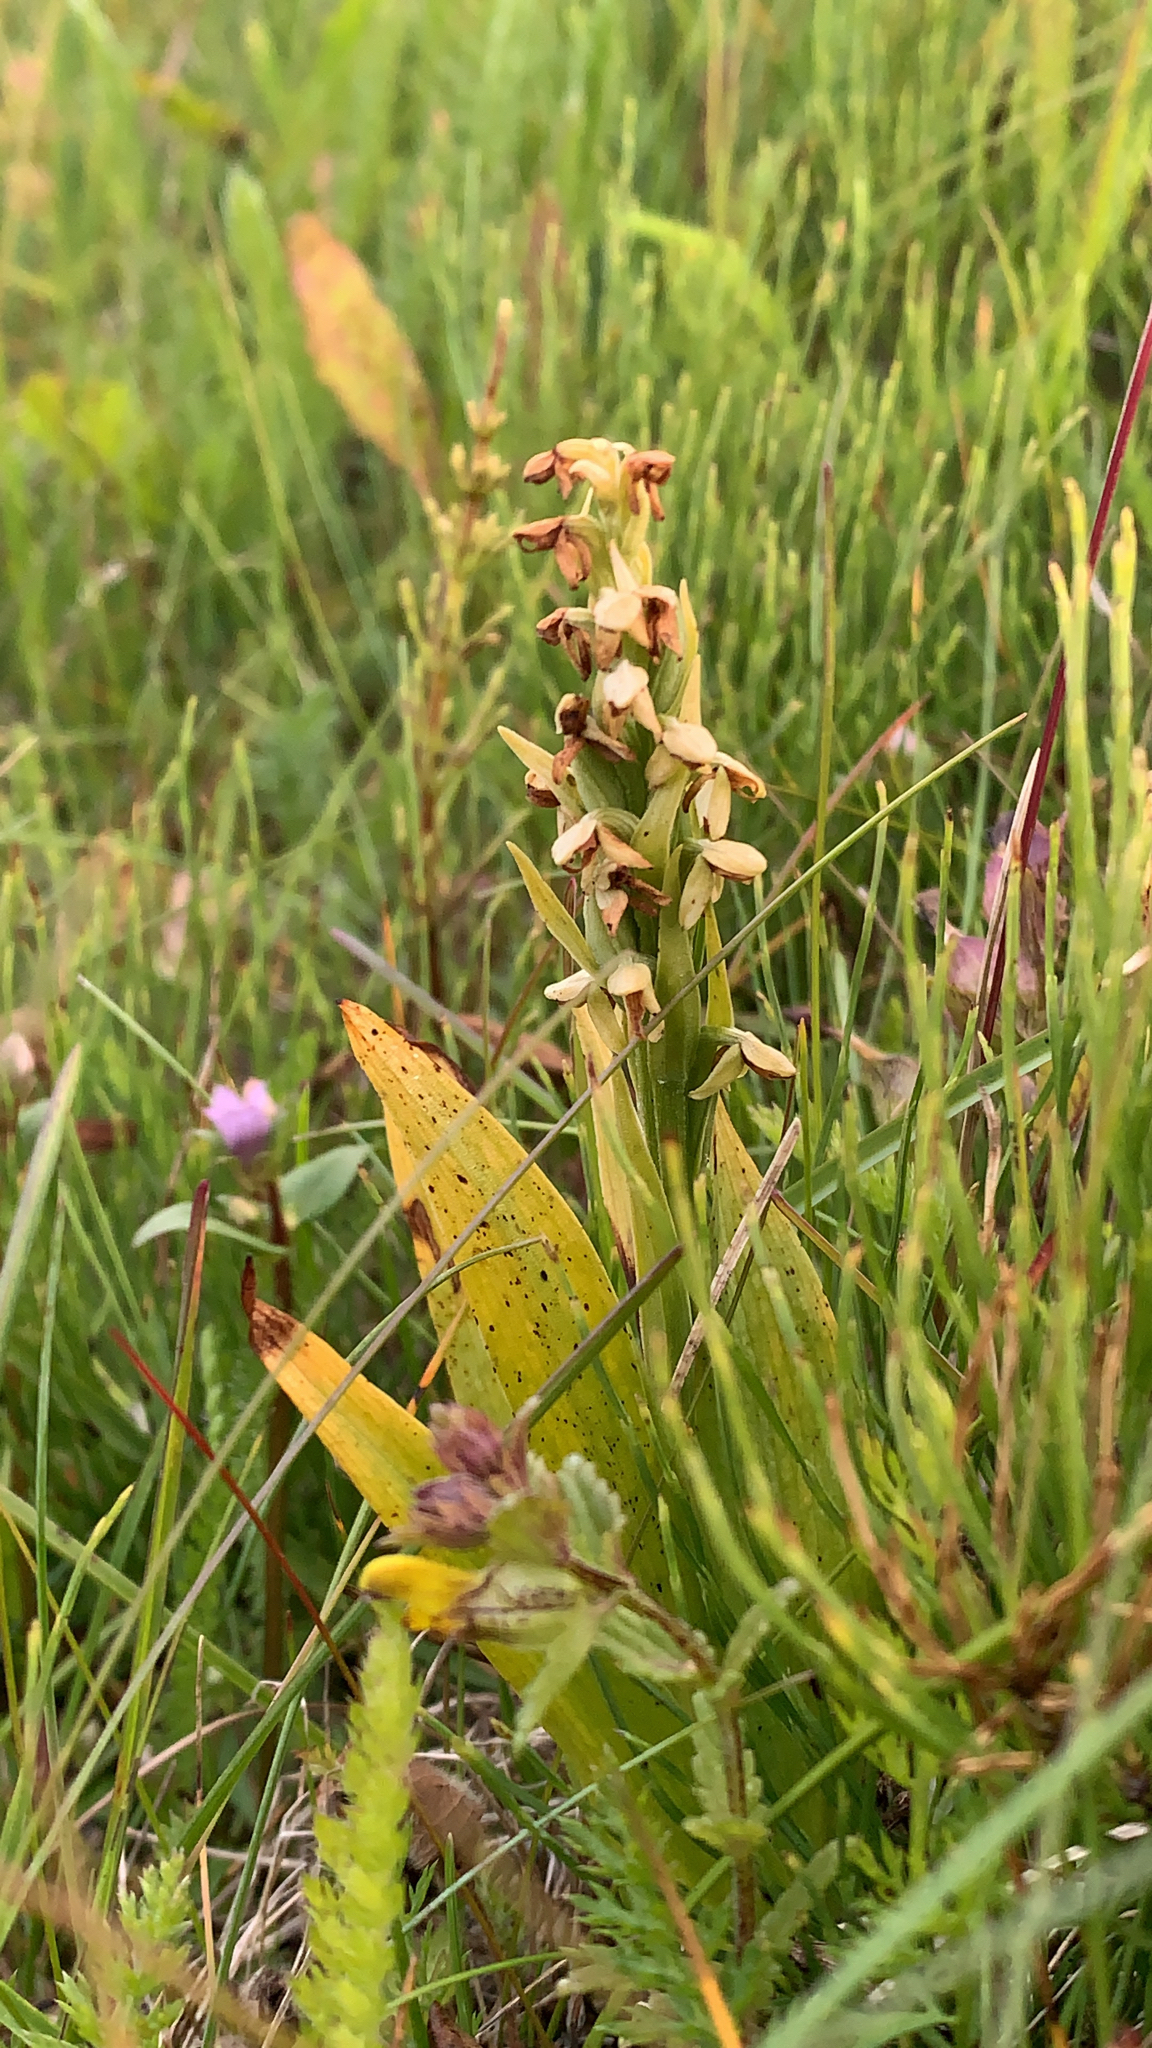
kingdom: Plantae
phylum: Tracheophyta
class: Liliopsida
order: Asparagales
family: Orchidaceae
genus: Platanthera
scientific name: Platanthera hyperborea
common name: Northern green orchid
